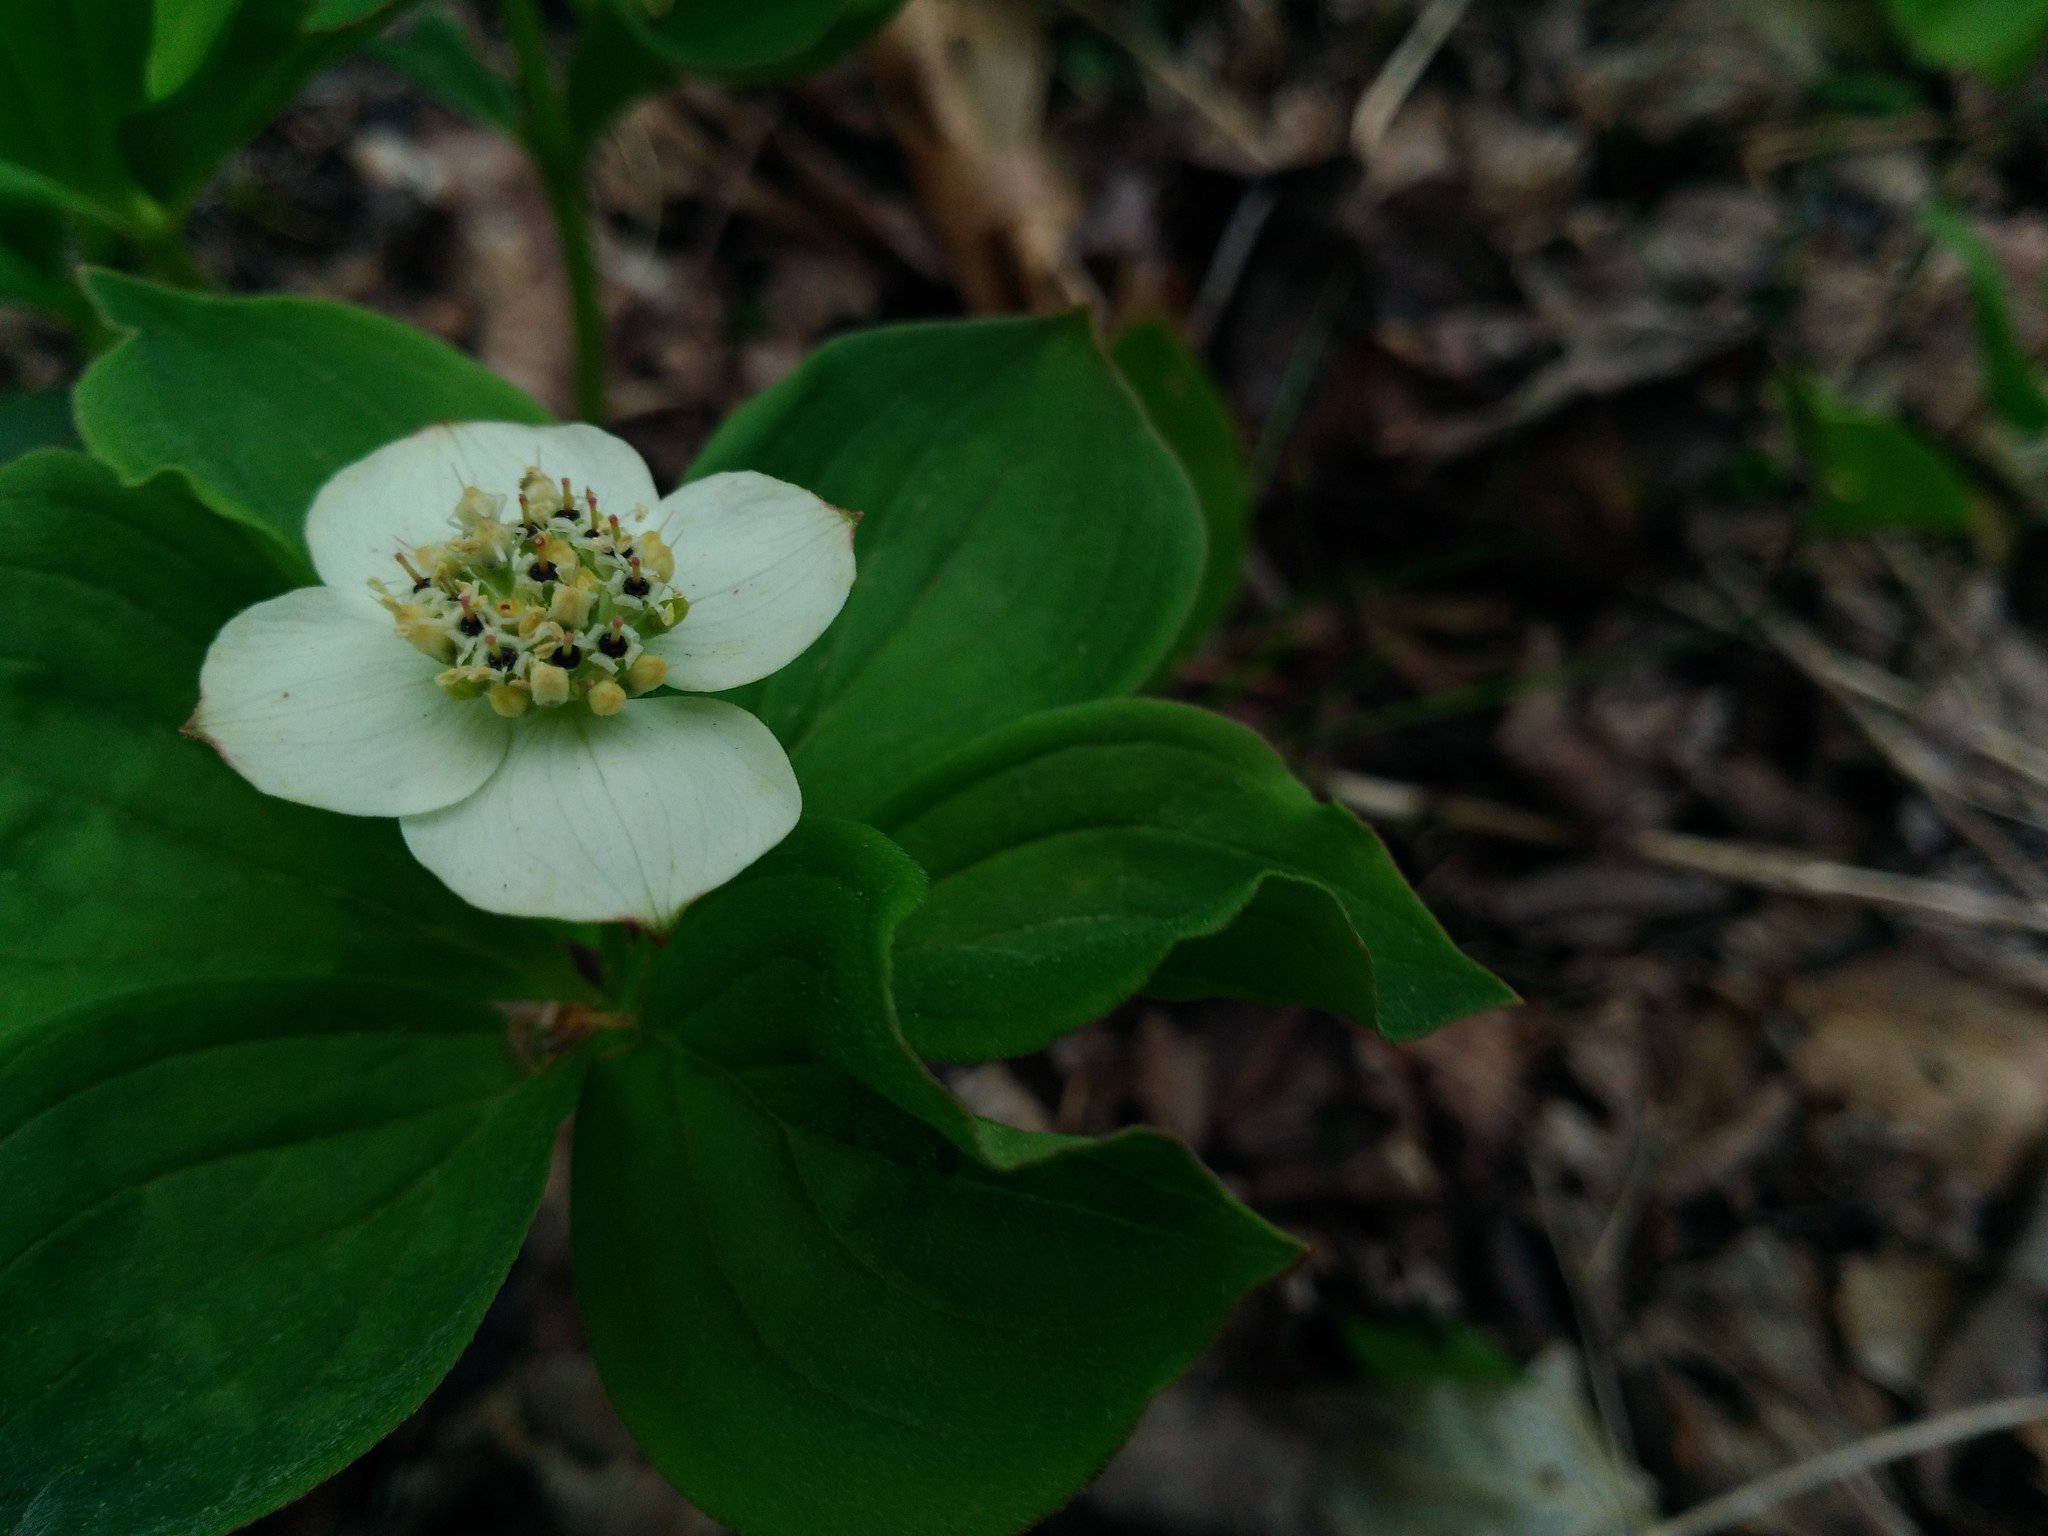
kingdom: Plantae
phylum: Tracheophyta
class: Magnoliopsida
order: Cornales
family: Cornaceae
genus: Cornus
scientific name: Cornus canadensis
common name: Creeping dogwood
